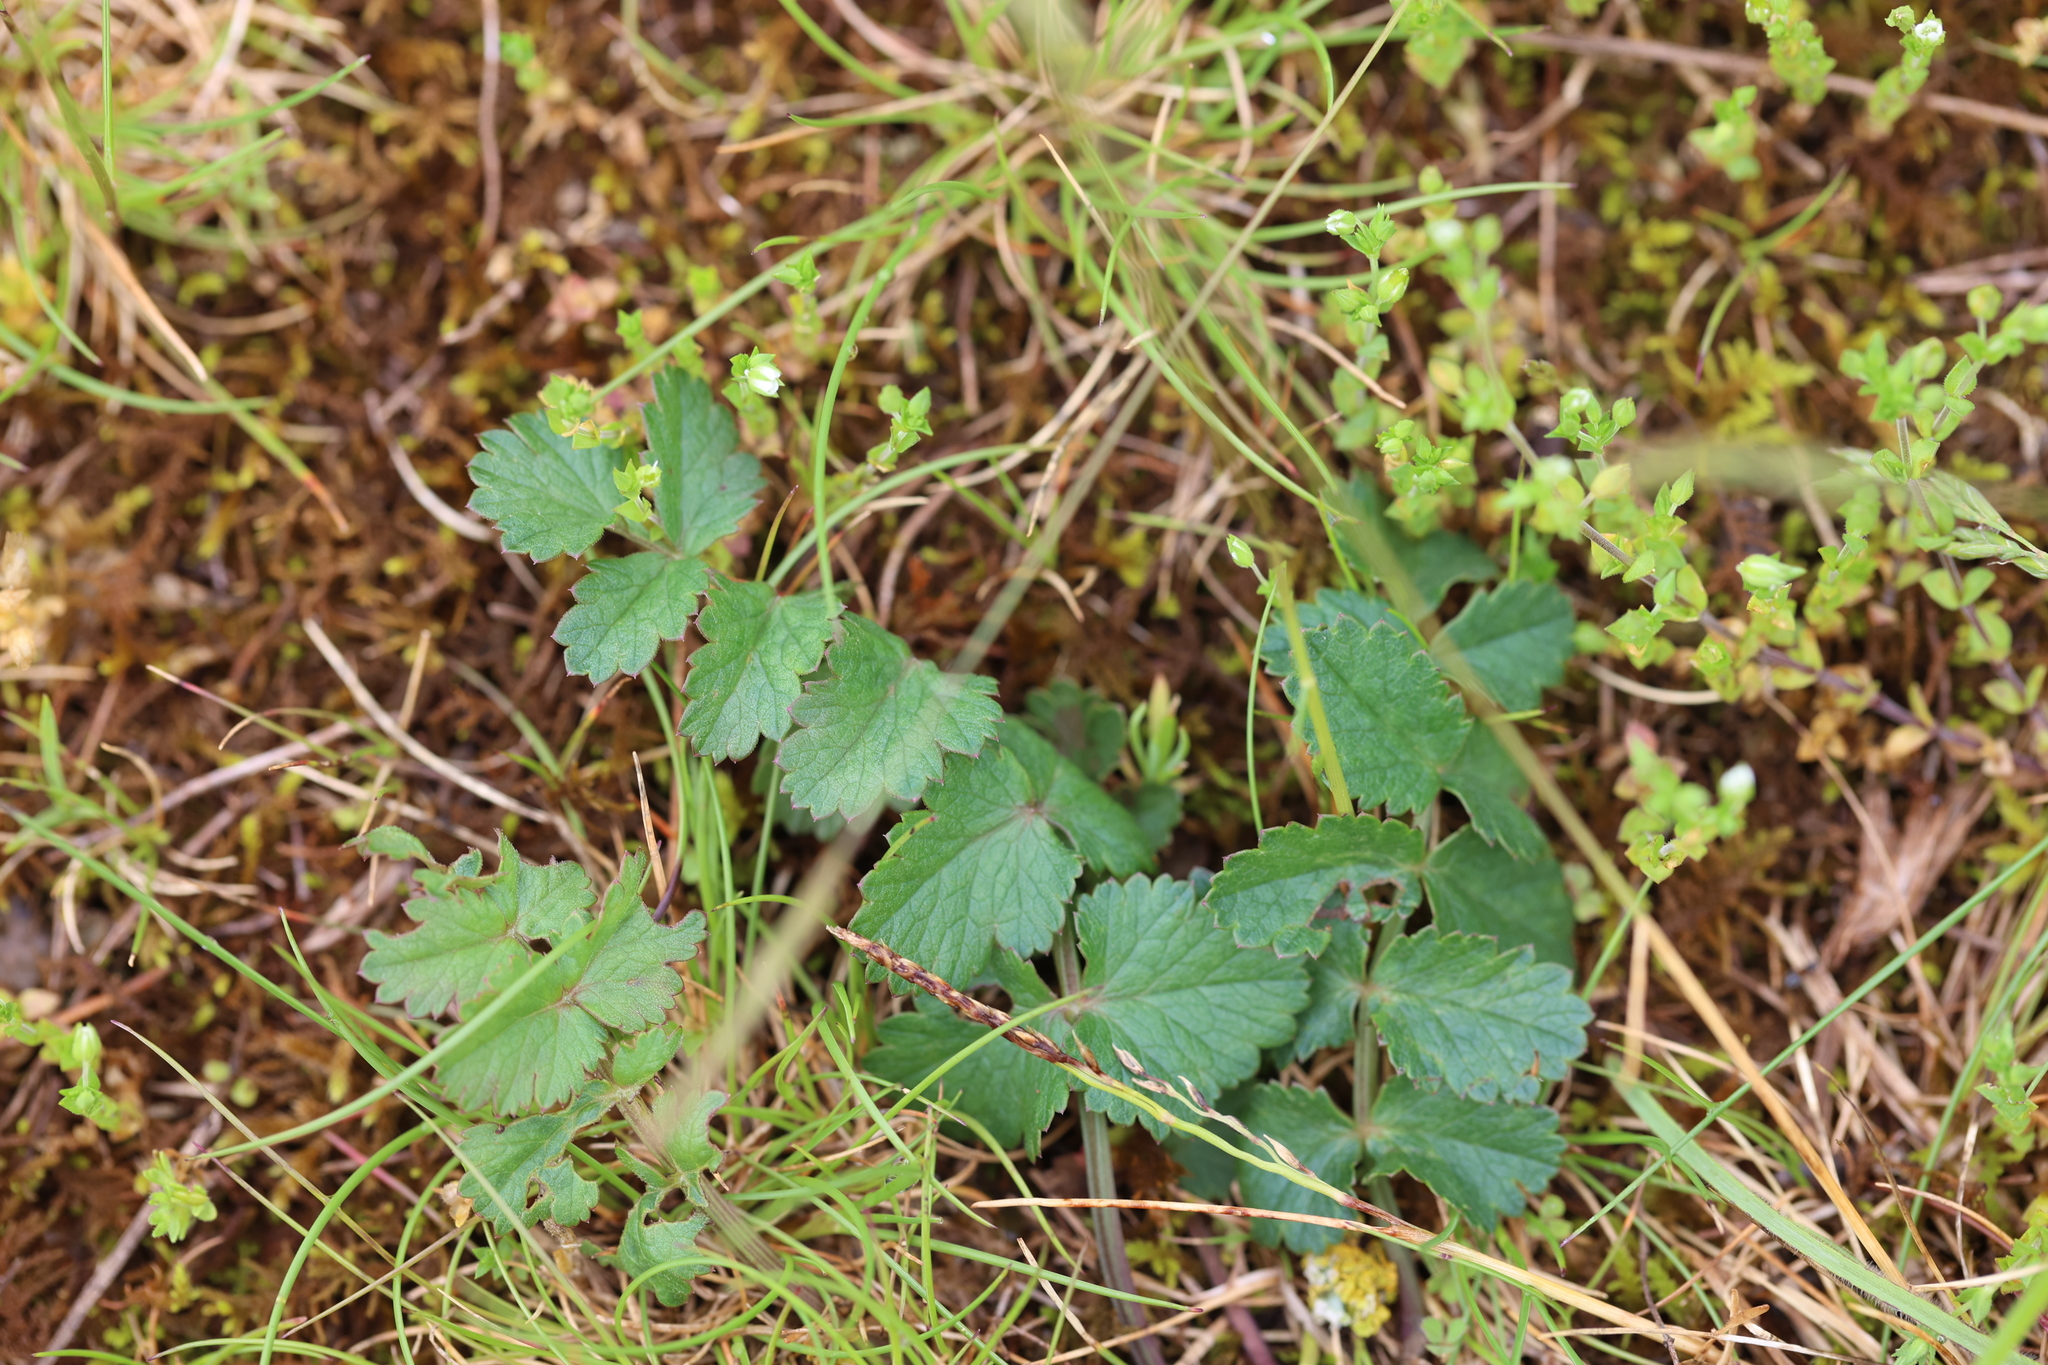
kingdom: Plantae
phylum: Tracheophyta
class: Magnoliopsida
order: Apiales
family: Apiaceae
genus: Pimpinella
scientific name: Pimpinella saxifraga
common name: Burnet-saxifrage
